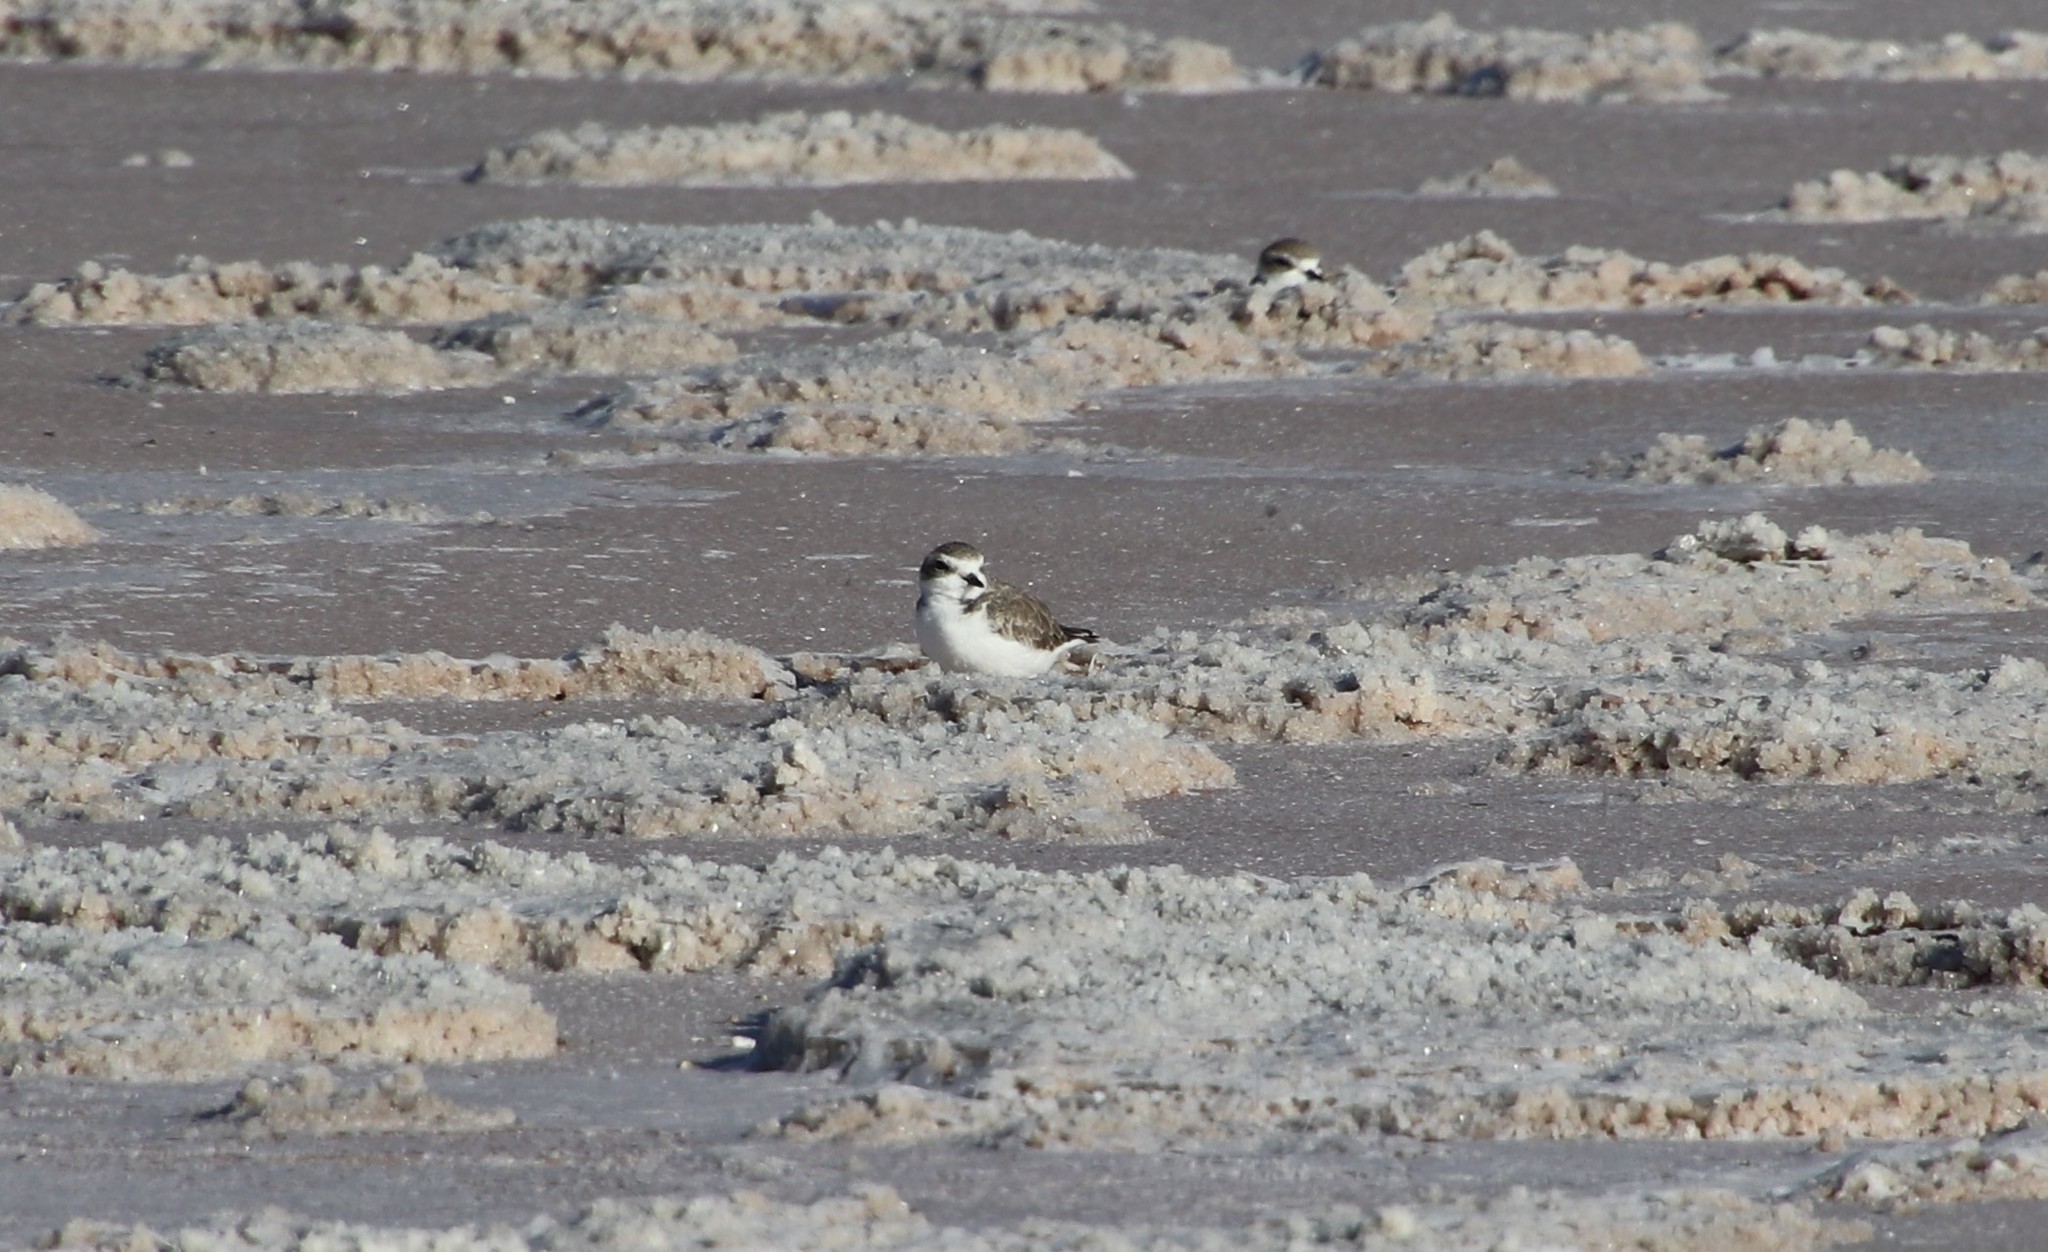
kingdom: Animalia
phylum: Chordata
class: Aves
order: Charadriiformes
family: Charadriidae
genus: Anarhynchus
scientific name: Anarhynchus
